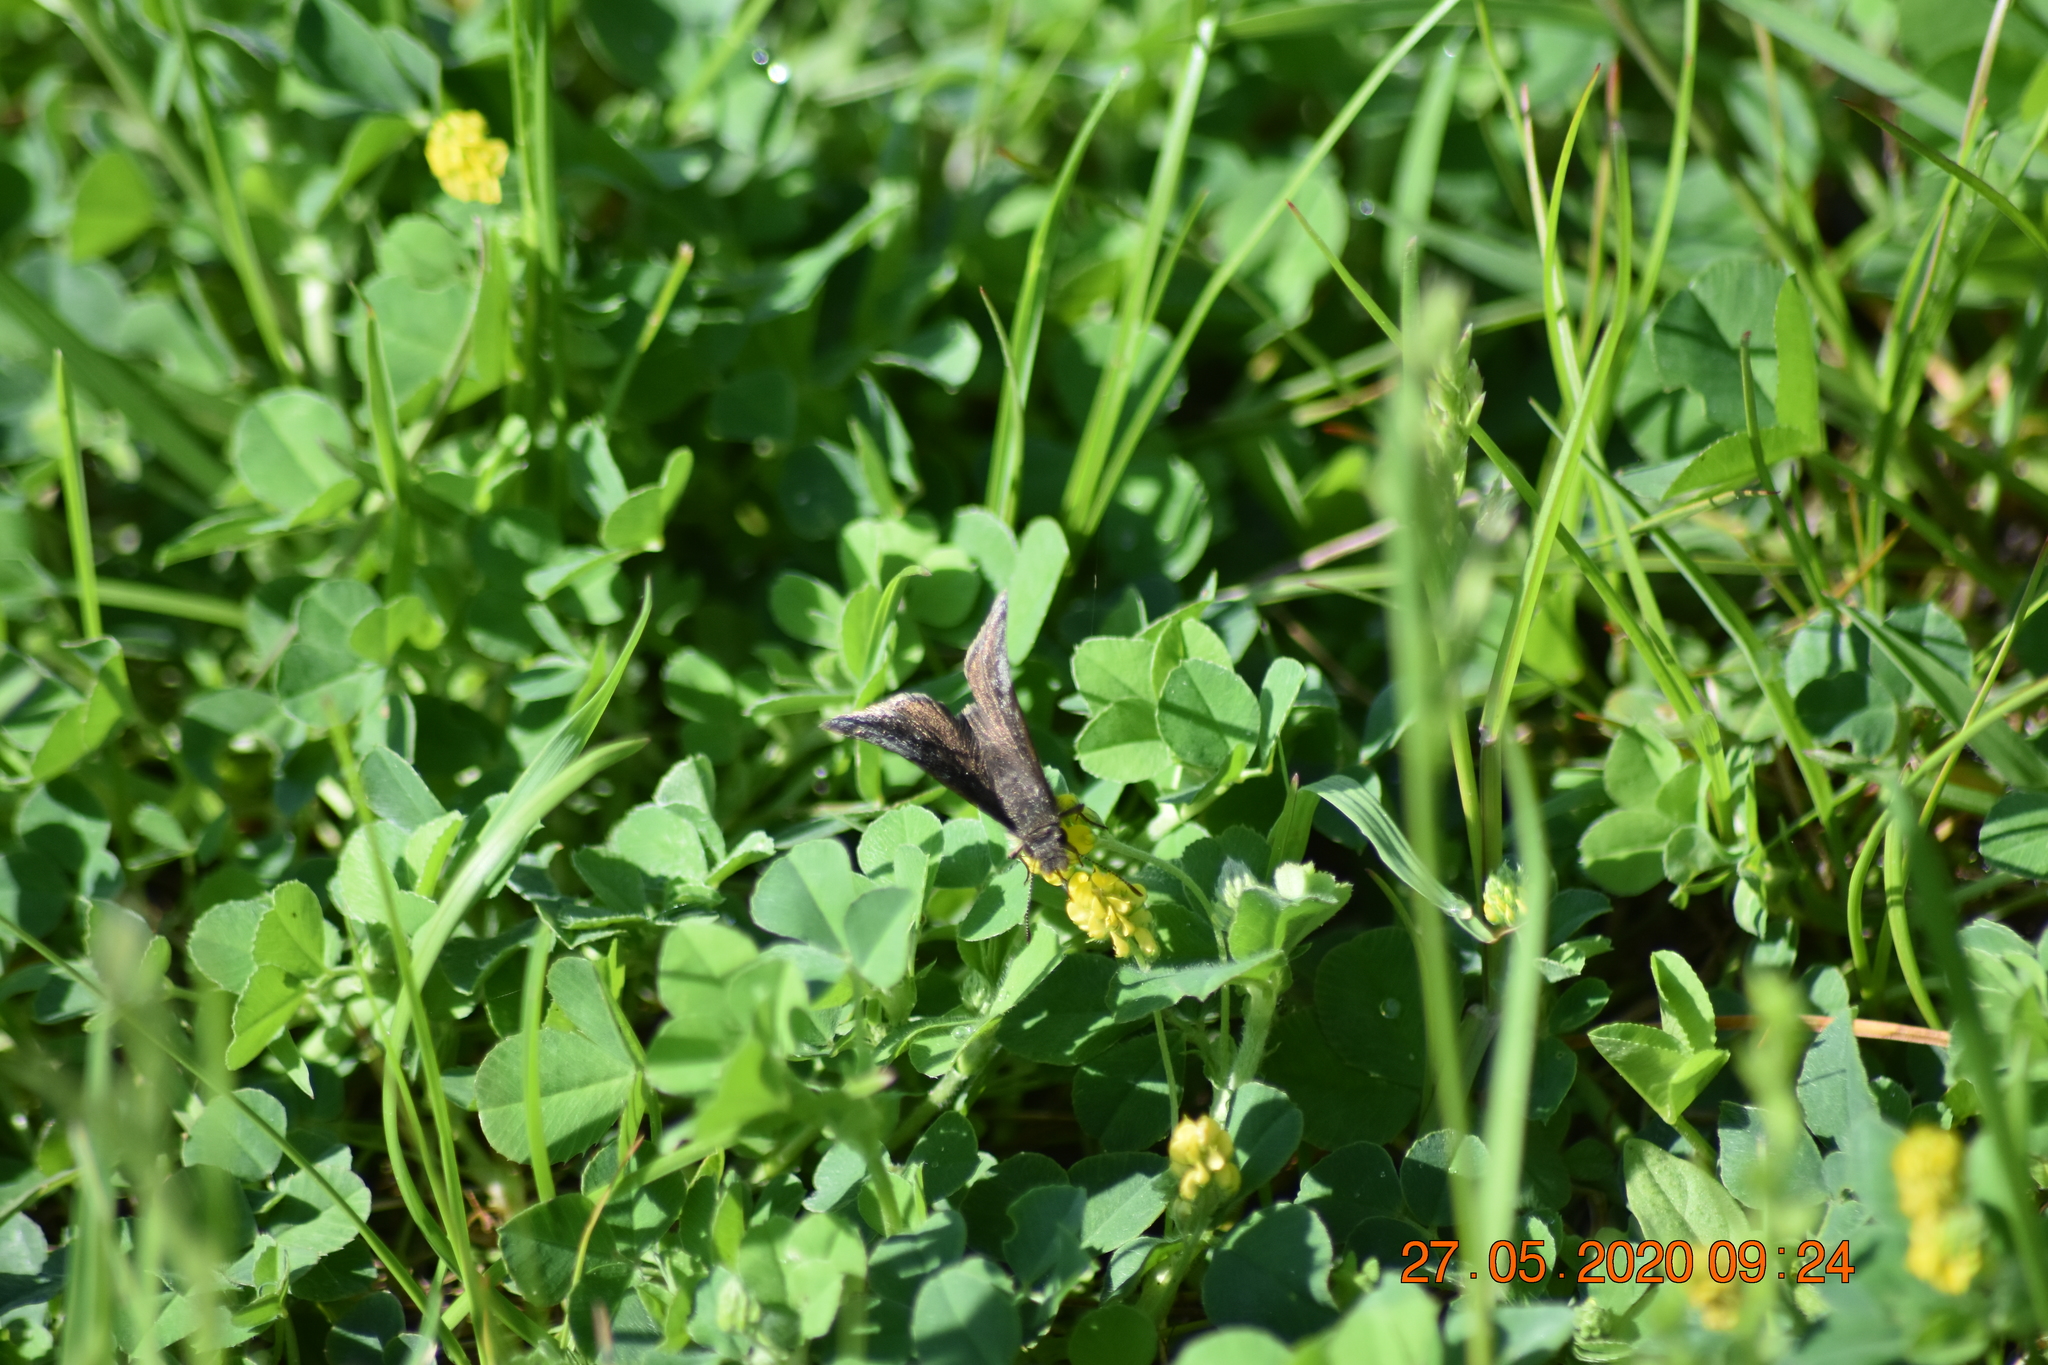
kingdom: Animalia
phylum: Arthropoda
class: Insecta
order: Lepidoptera
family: Hesperiidae
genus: Erynnis
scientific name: Erynnis icelus
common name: Dreamy duskywing
